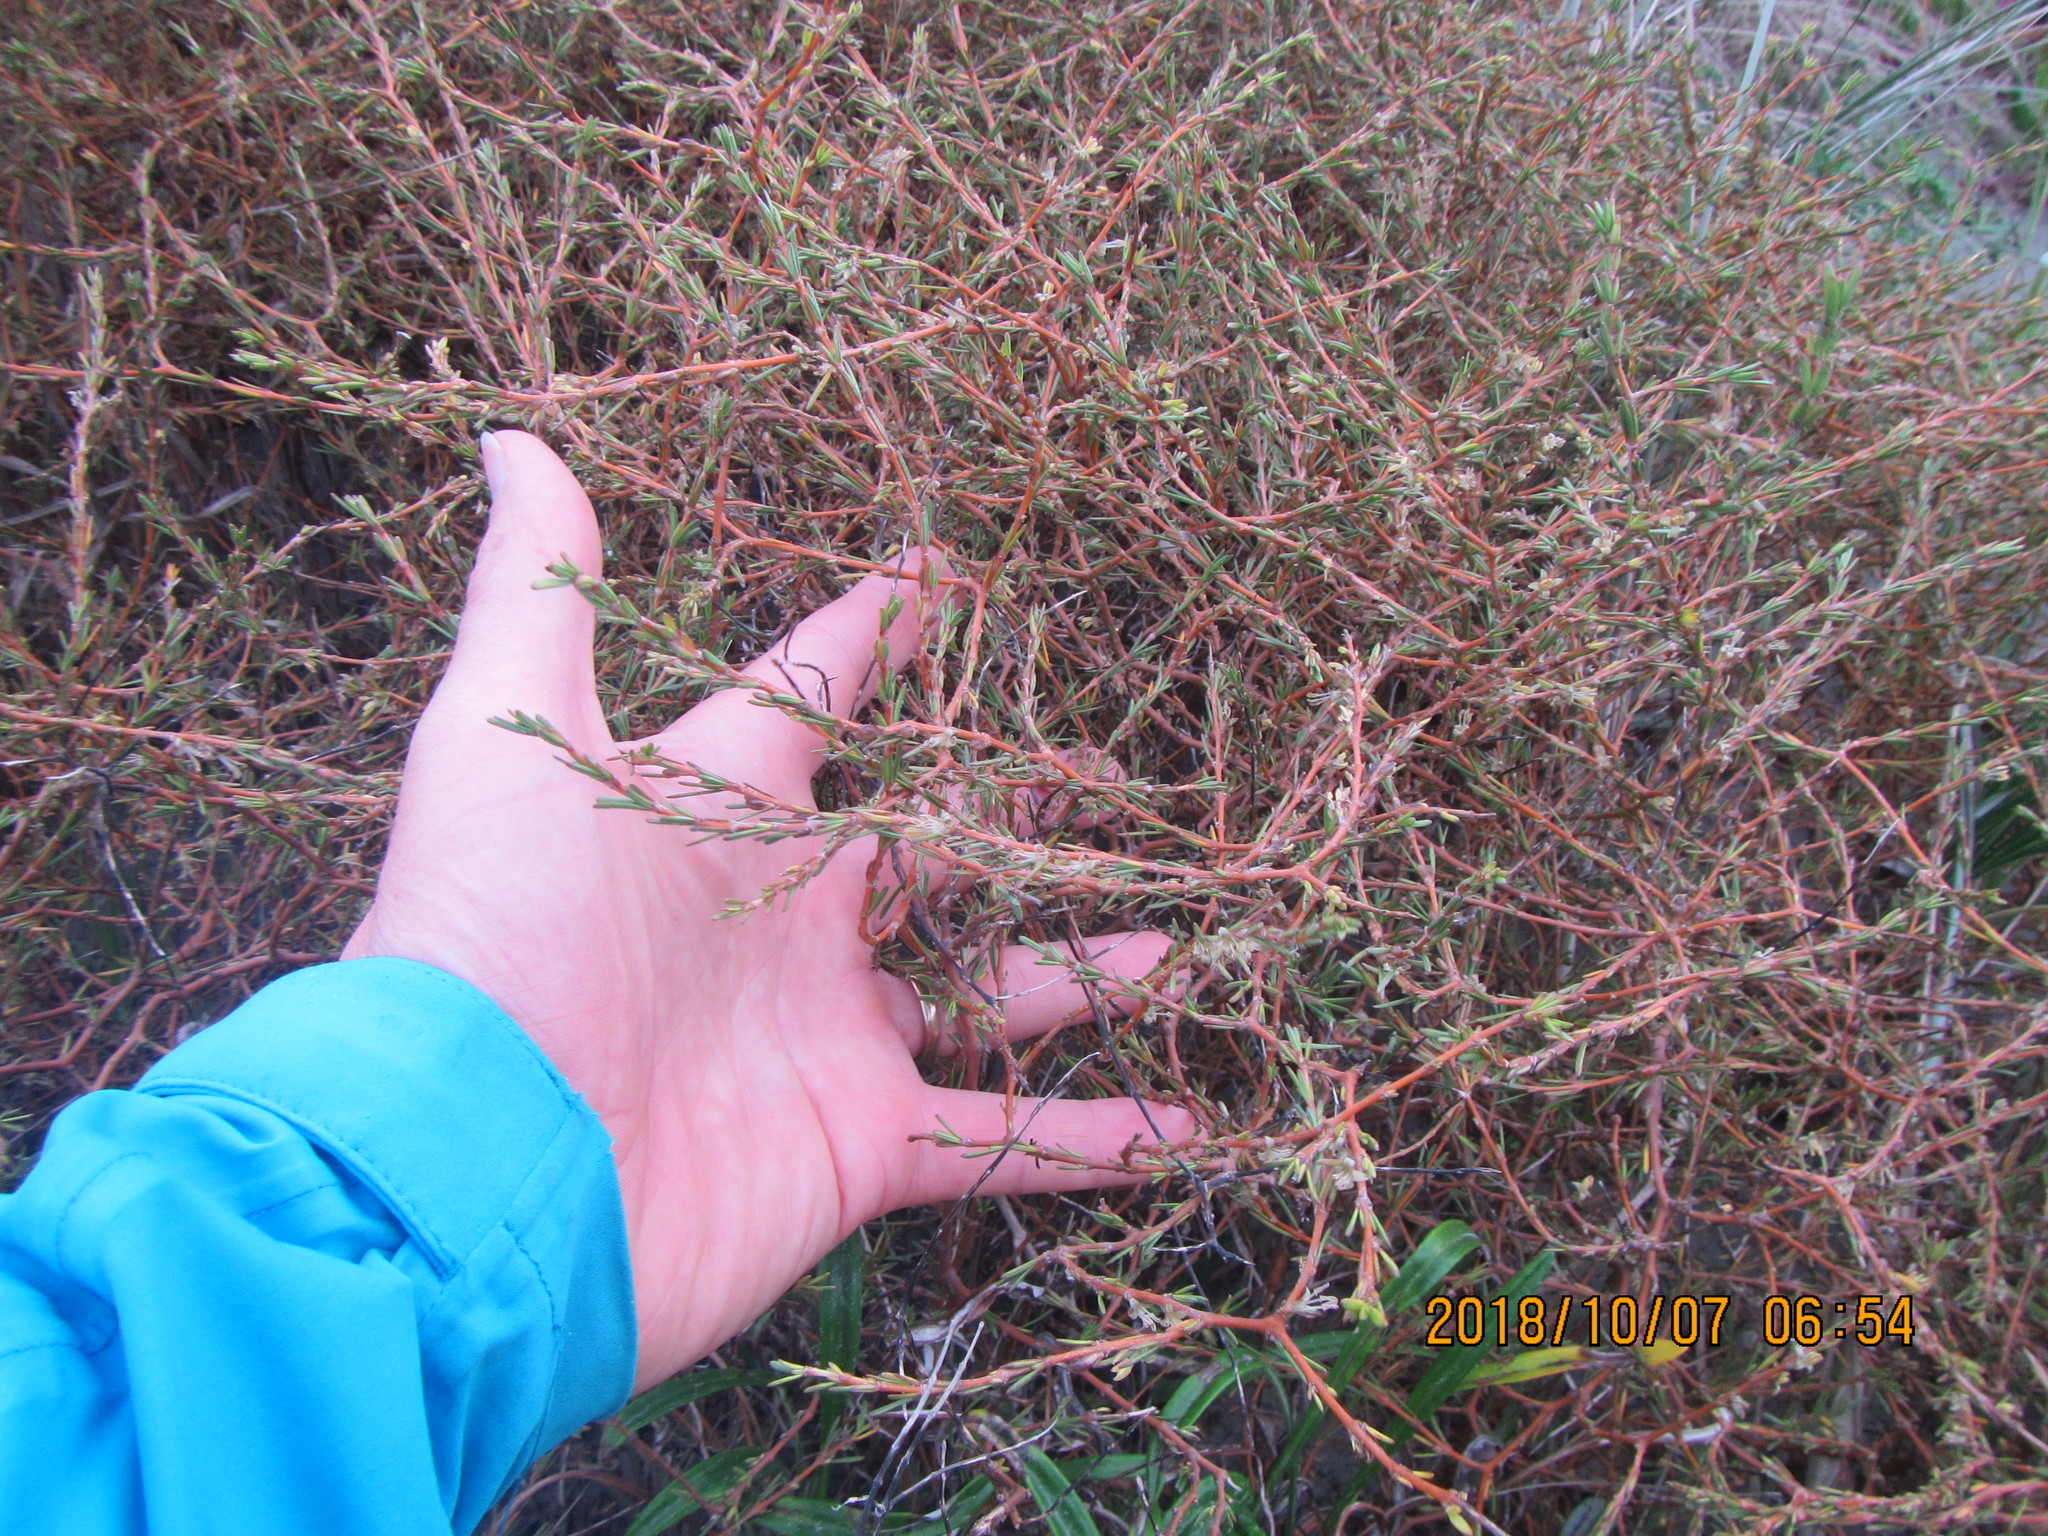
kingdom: Plantae
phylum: Tracheophyta
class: Magnoliopsida
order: Gentianales
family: Rubiaceae
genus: Coprosma
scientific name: Coprosma acerosa
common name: Sand coprosma
